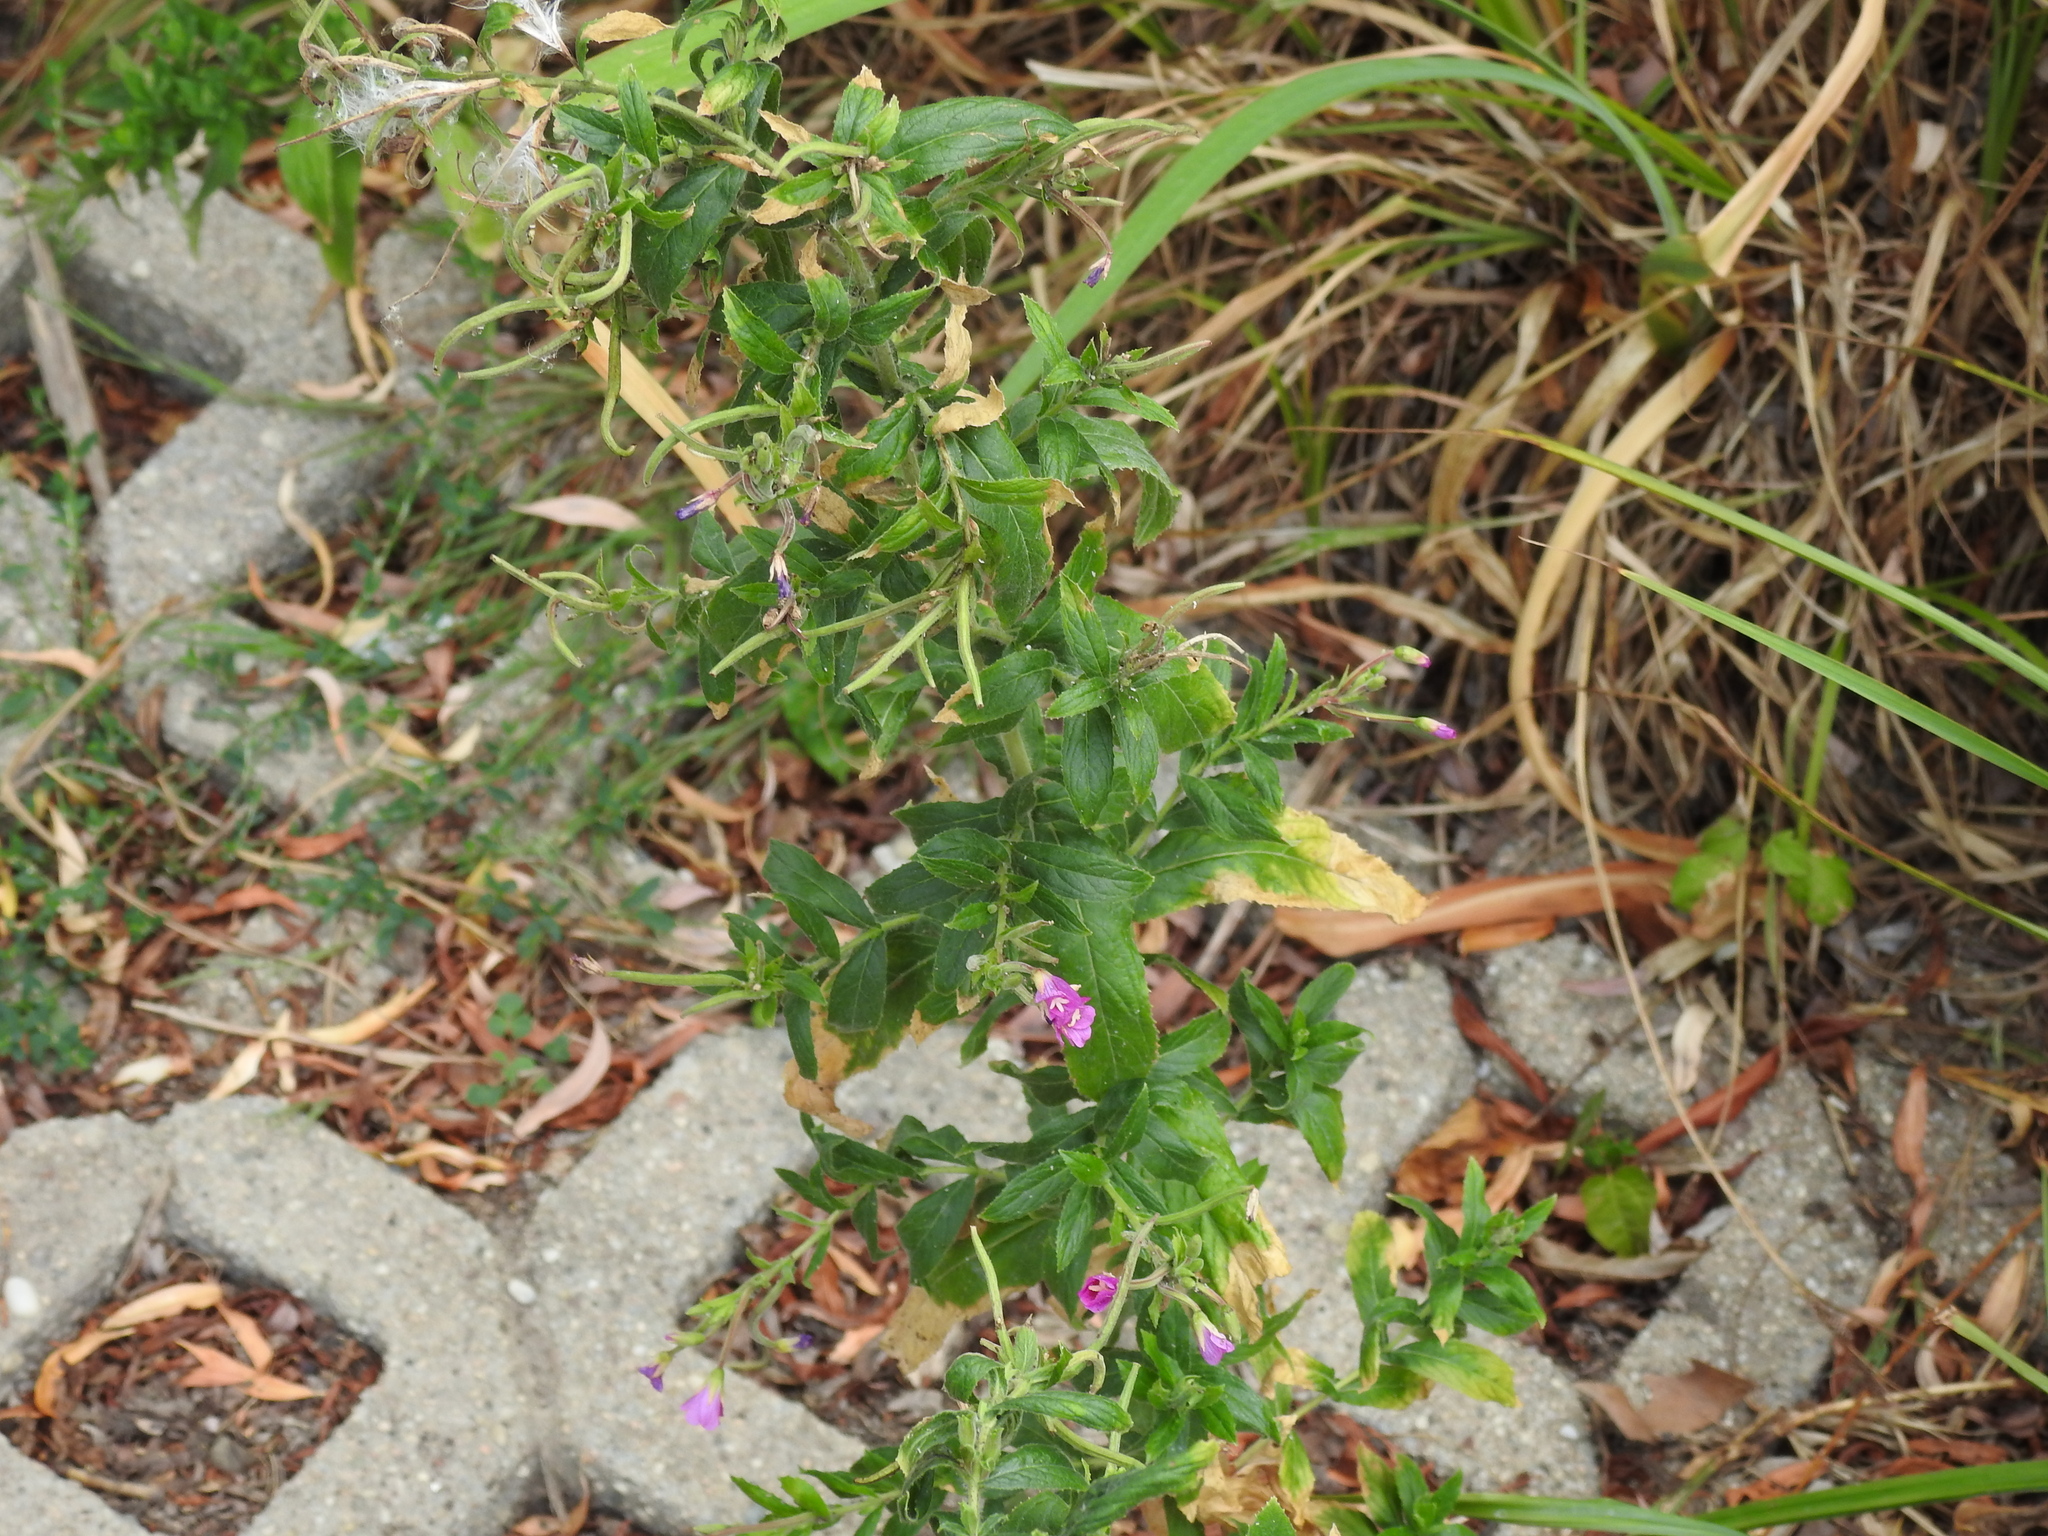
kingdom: Plantae
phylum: Tracheophyta
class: Magnoliopsida
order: Myrtales
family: Onagraceae
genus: Epilobium
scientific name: Epilobium hirsutum
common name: Great willowherb
